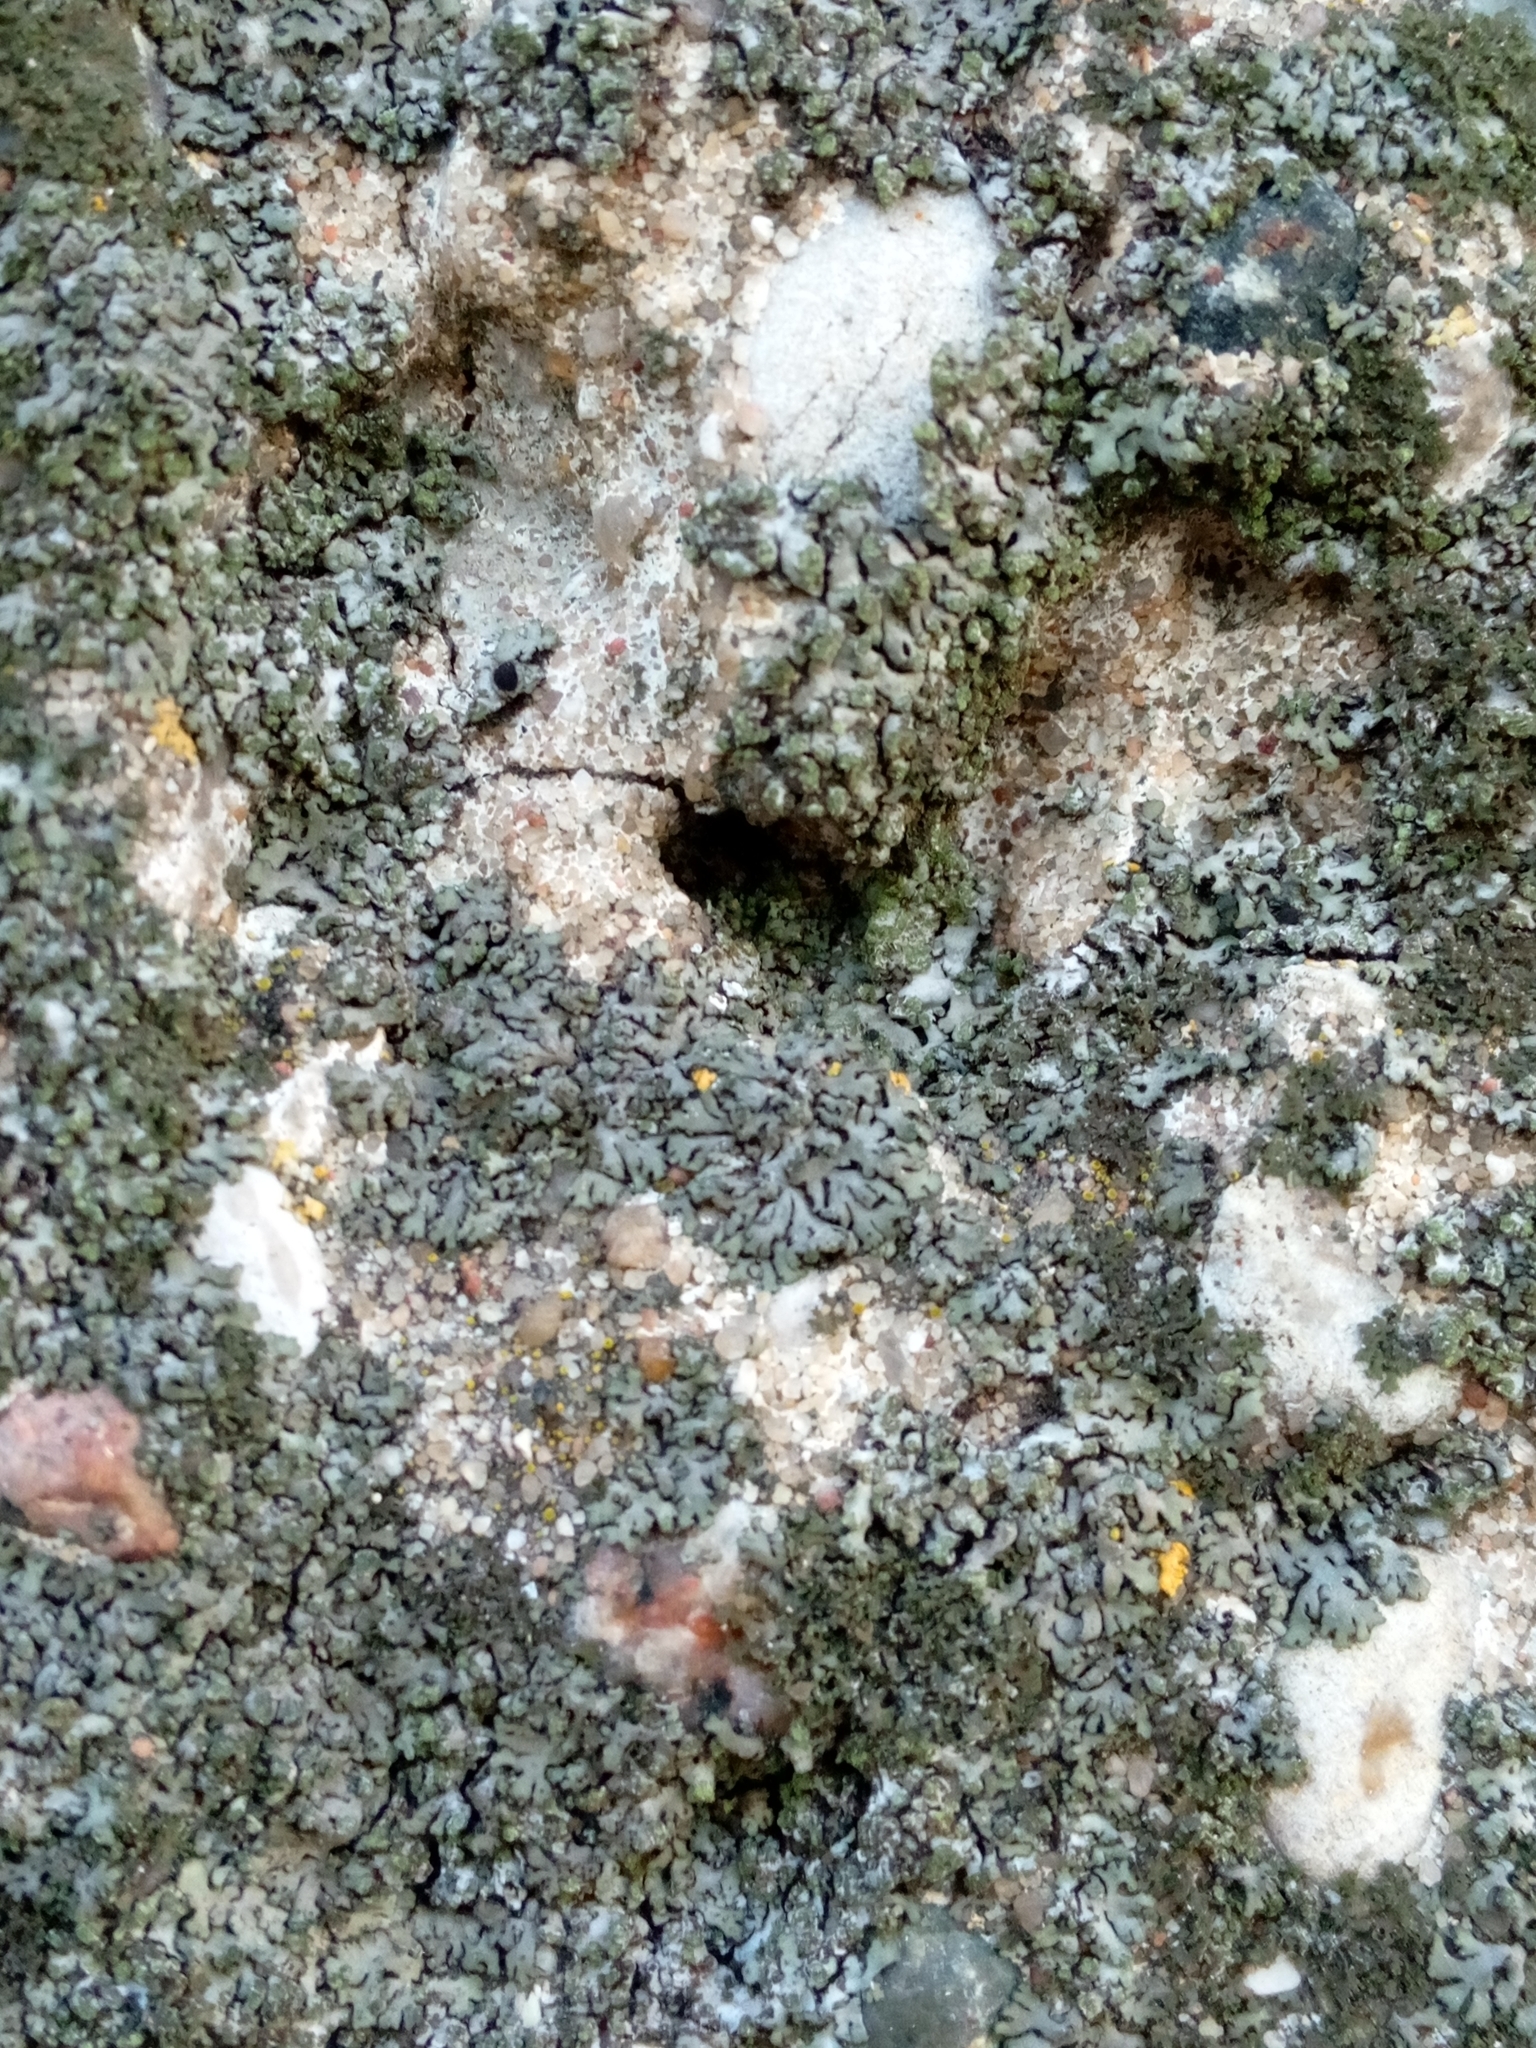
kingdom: Fungi
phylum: Ascomycota
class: Lecanoromycetes
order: Caliciales
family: Physciaceae
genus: Phaeophyscia
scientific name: Phaeophyscia orbicularis
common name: Mealy shadow lichen
